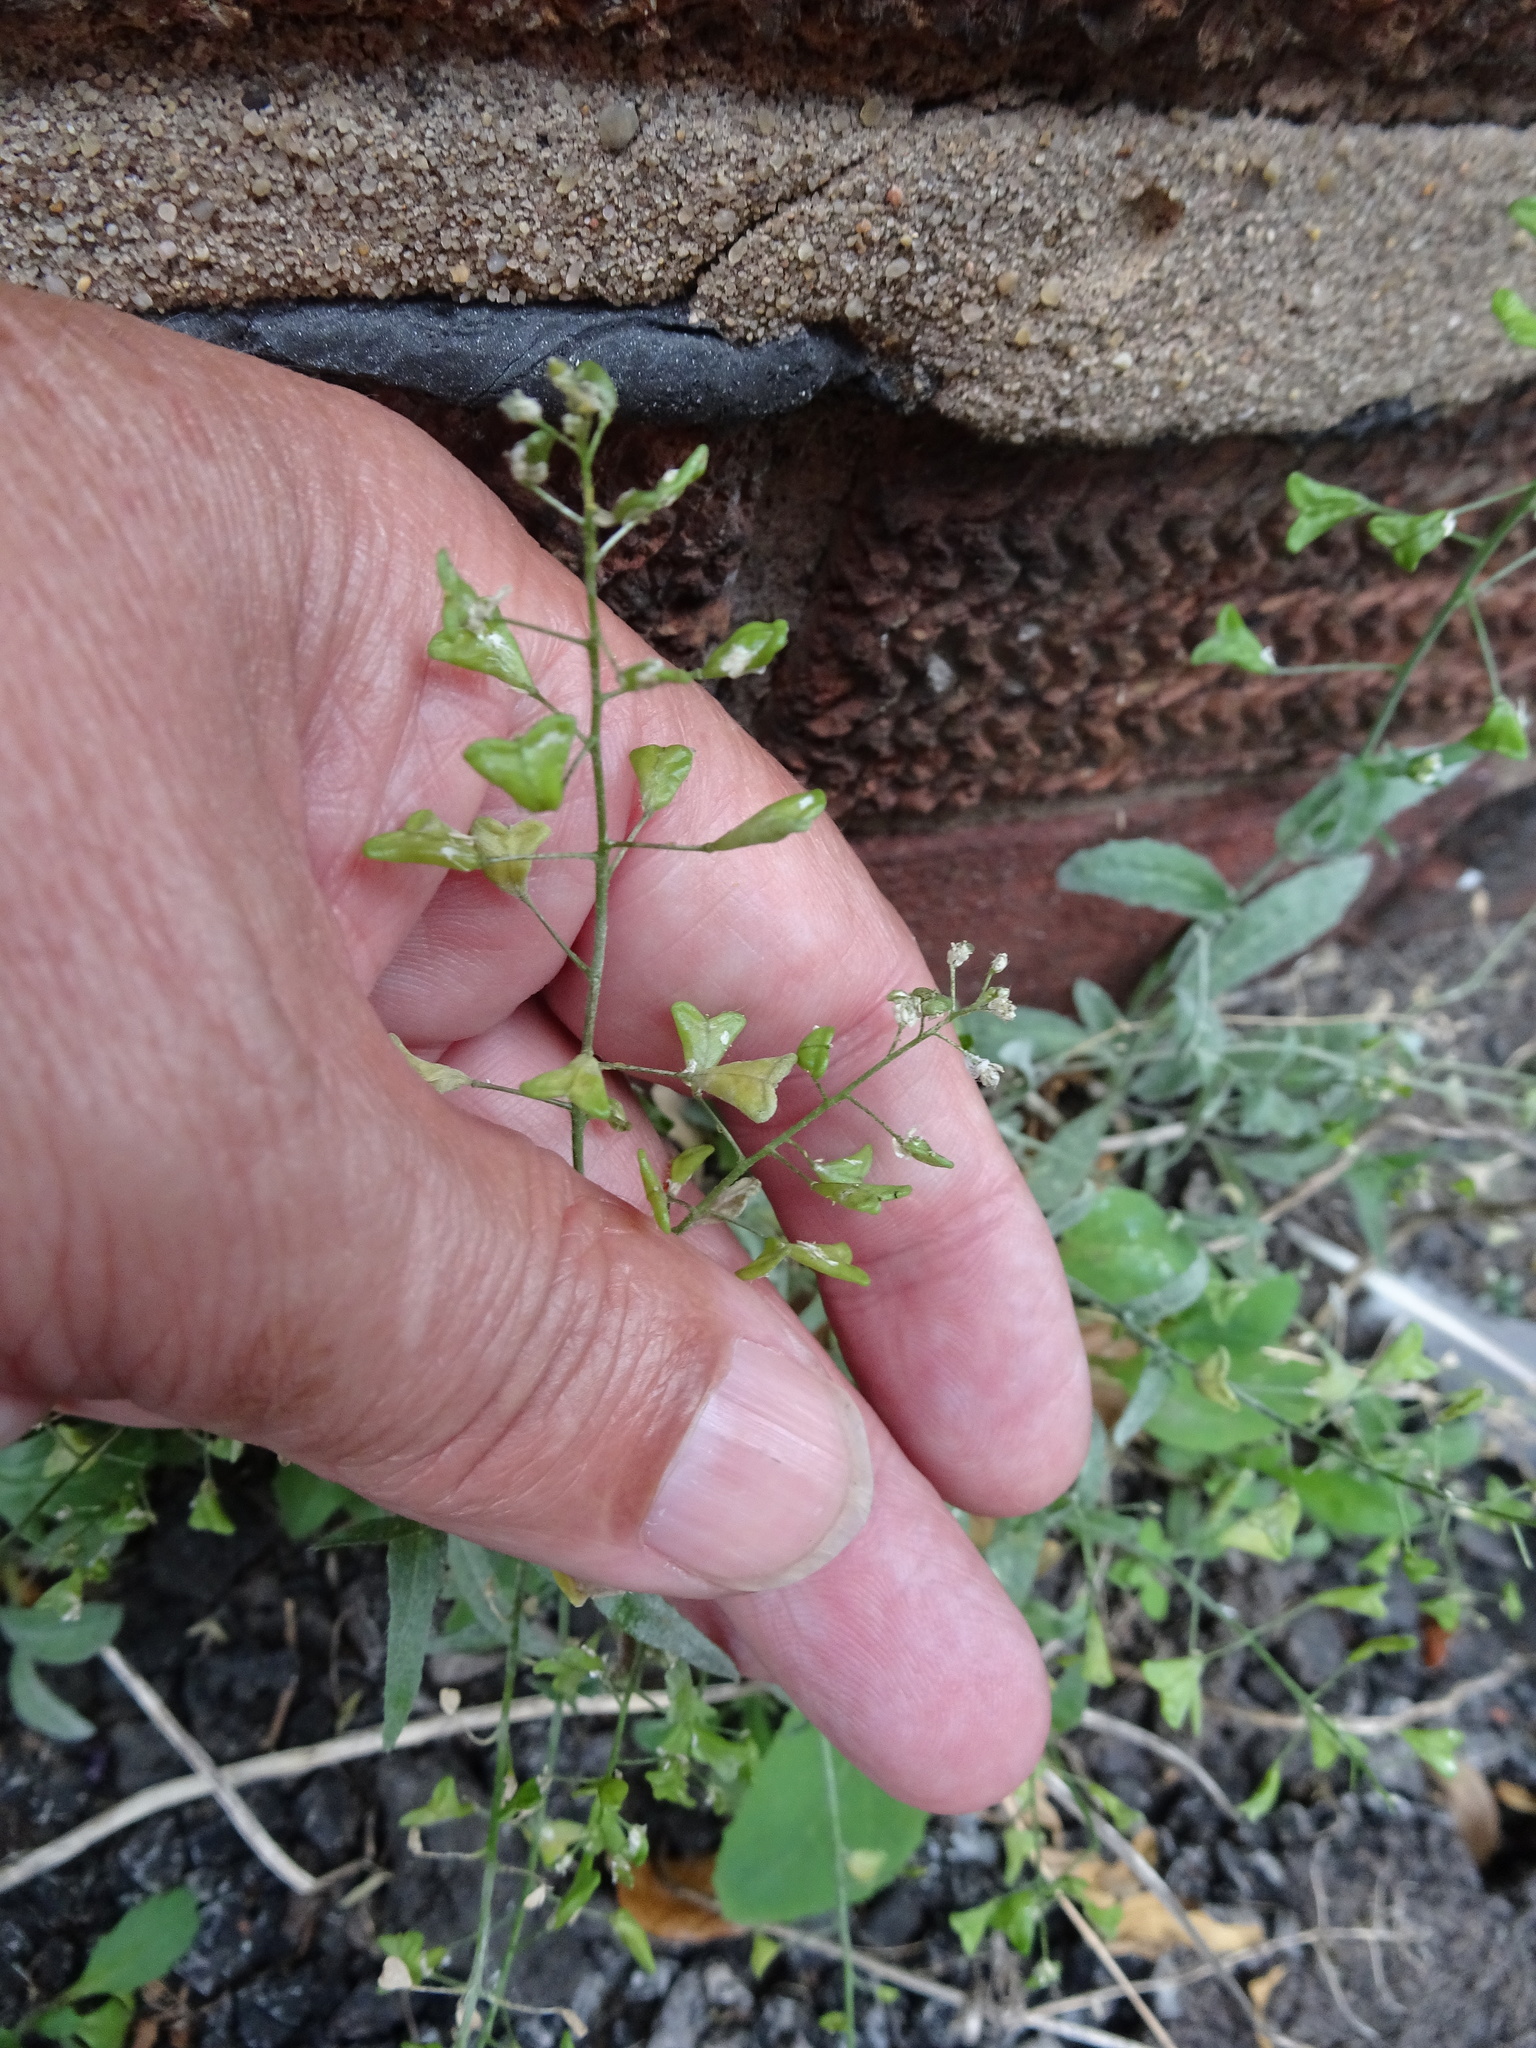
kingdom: Plantae
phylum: Tracheophyta
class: Magnoliopsida
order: Brassicales
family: Brassicaceae
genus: Capsella
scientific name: Capsella bursa-pastoris
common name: Shepherd's purse
